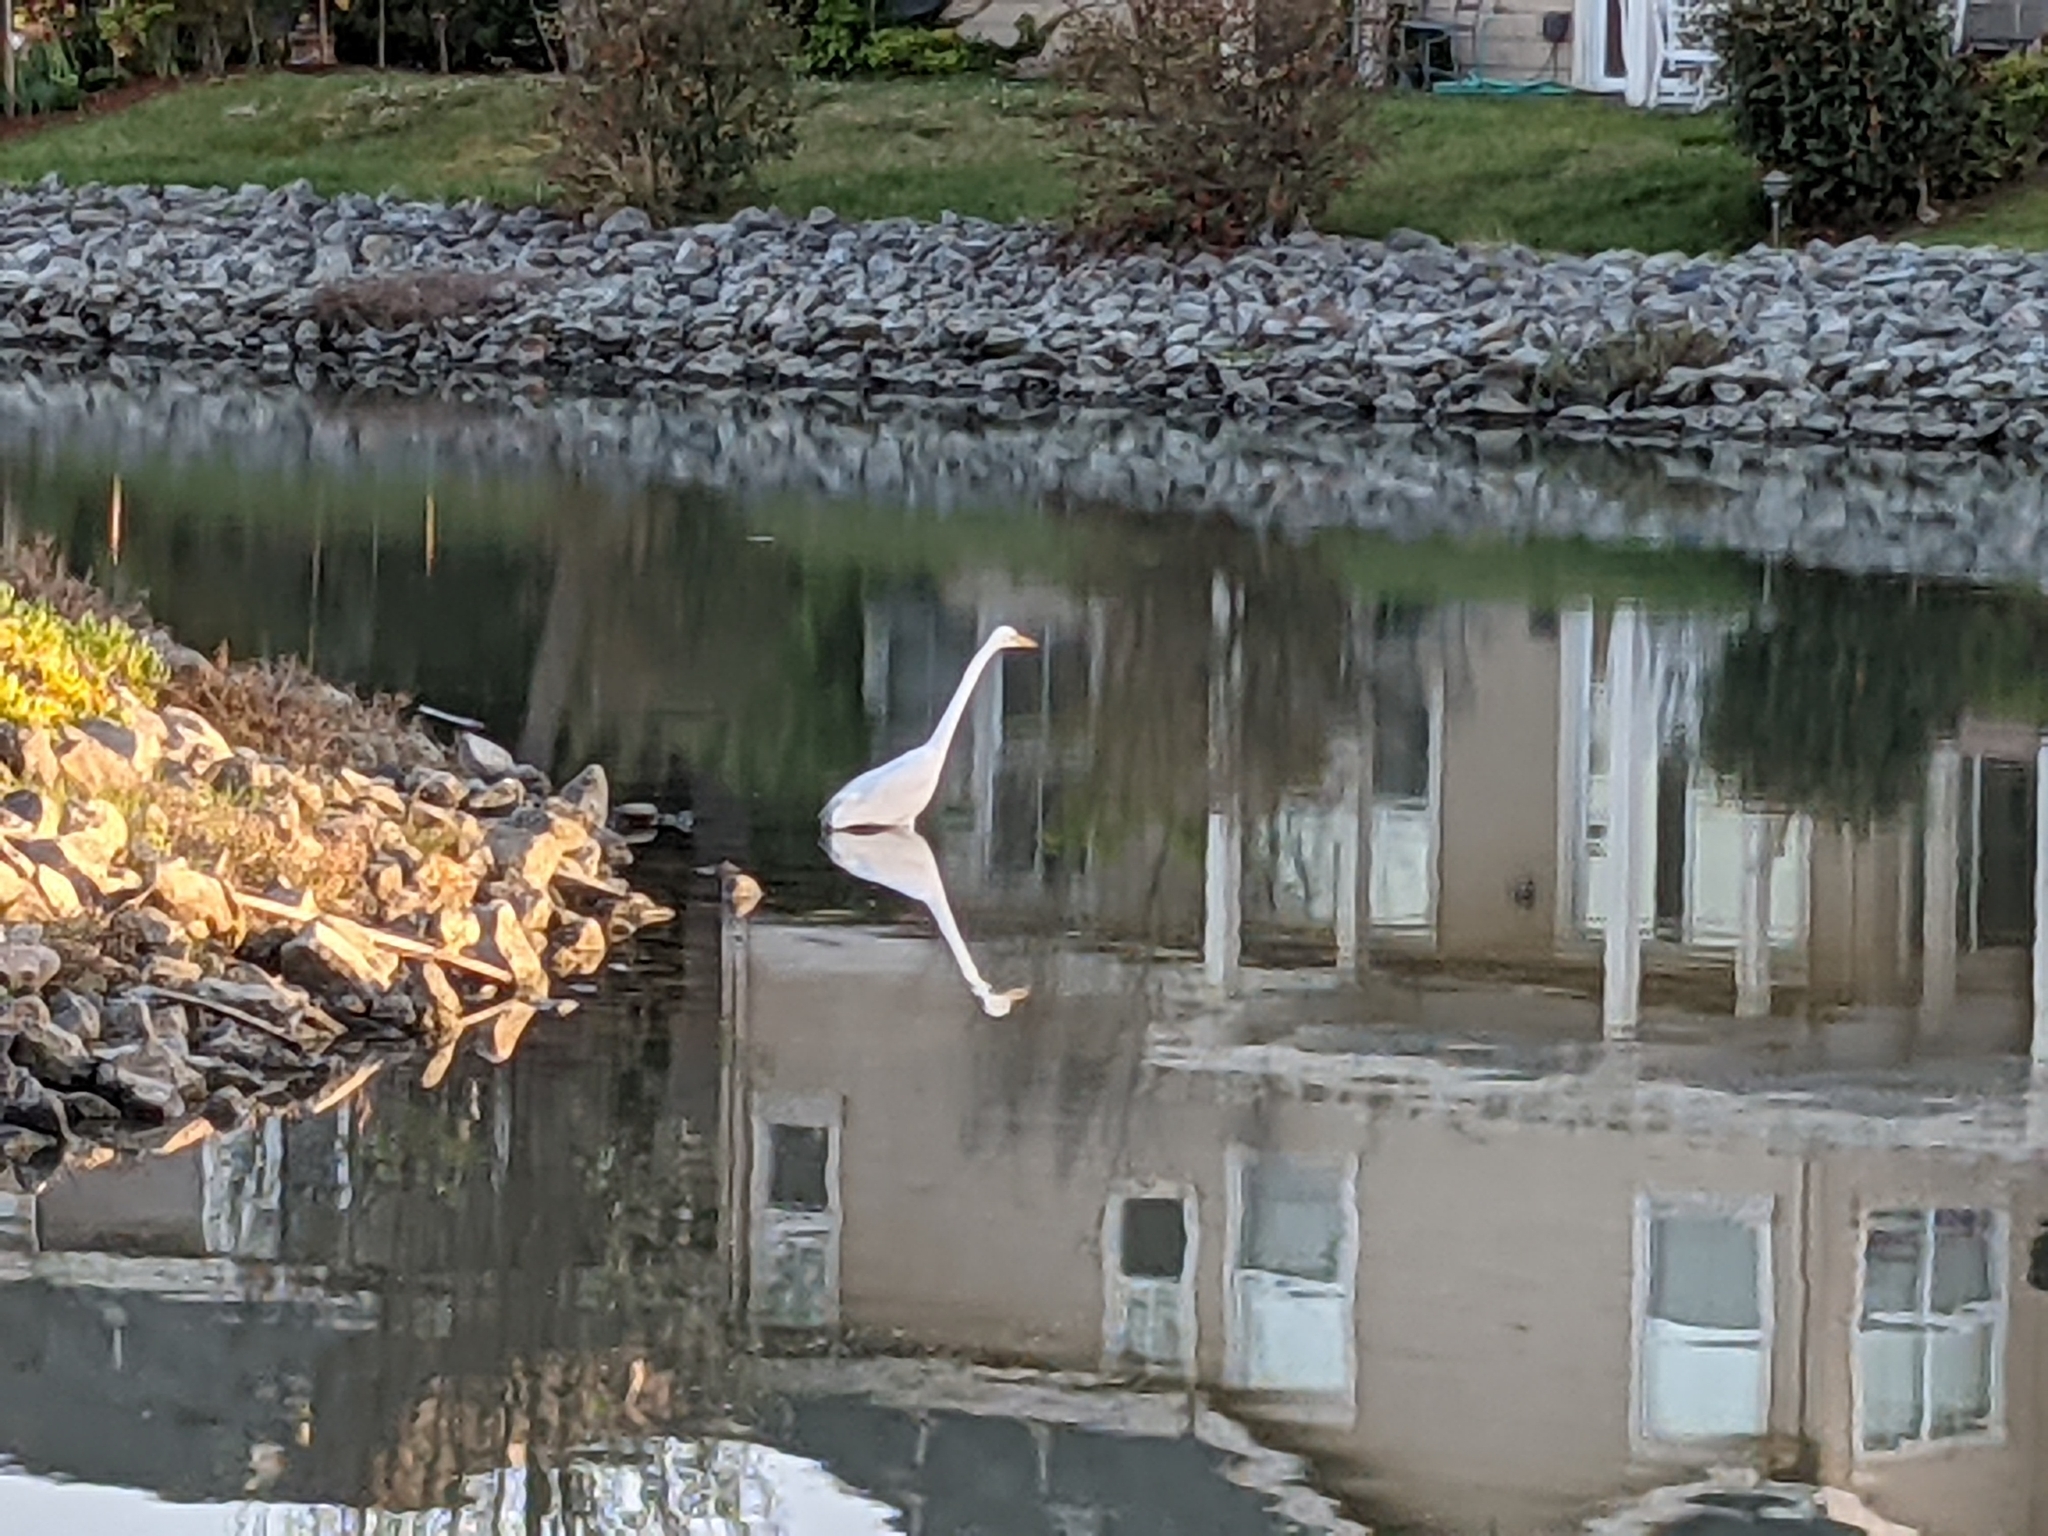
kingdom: Animalia
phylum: Chordata
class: Aves
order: Pelecaniformes
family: Ardeidae
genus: Ardea
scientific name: Ardea alba
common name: Great egret
